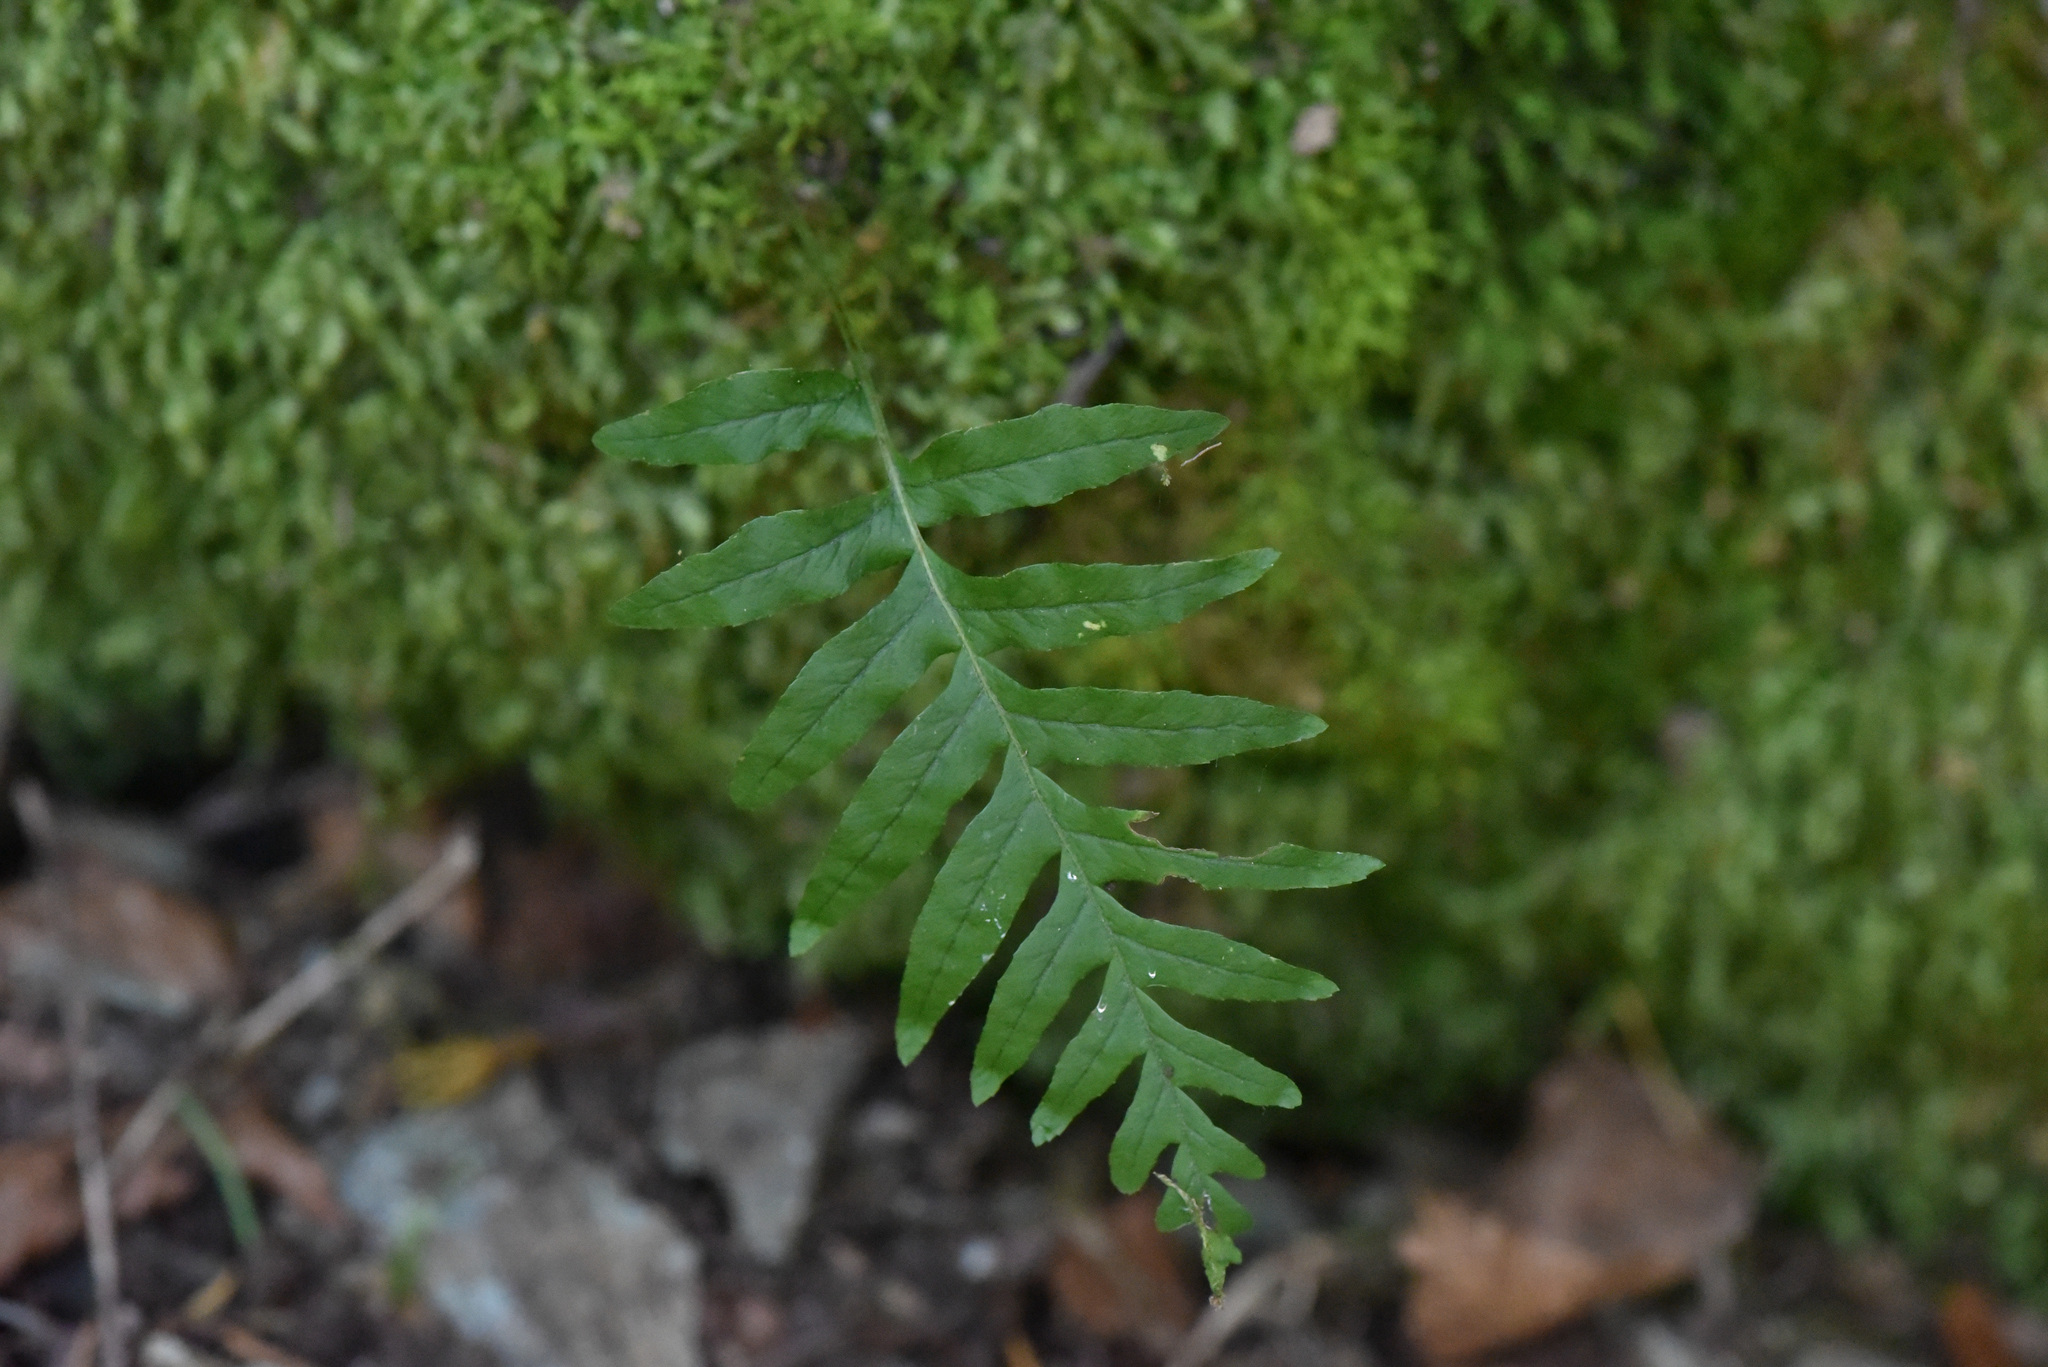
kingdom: Plantae
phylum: Tracheophyta
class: Polypodiopsida
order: Polypodiales
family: Polypodiaceae
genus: Polypodium
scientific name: Polypodium glycyrrhiza
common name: Licorice fern
